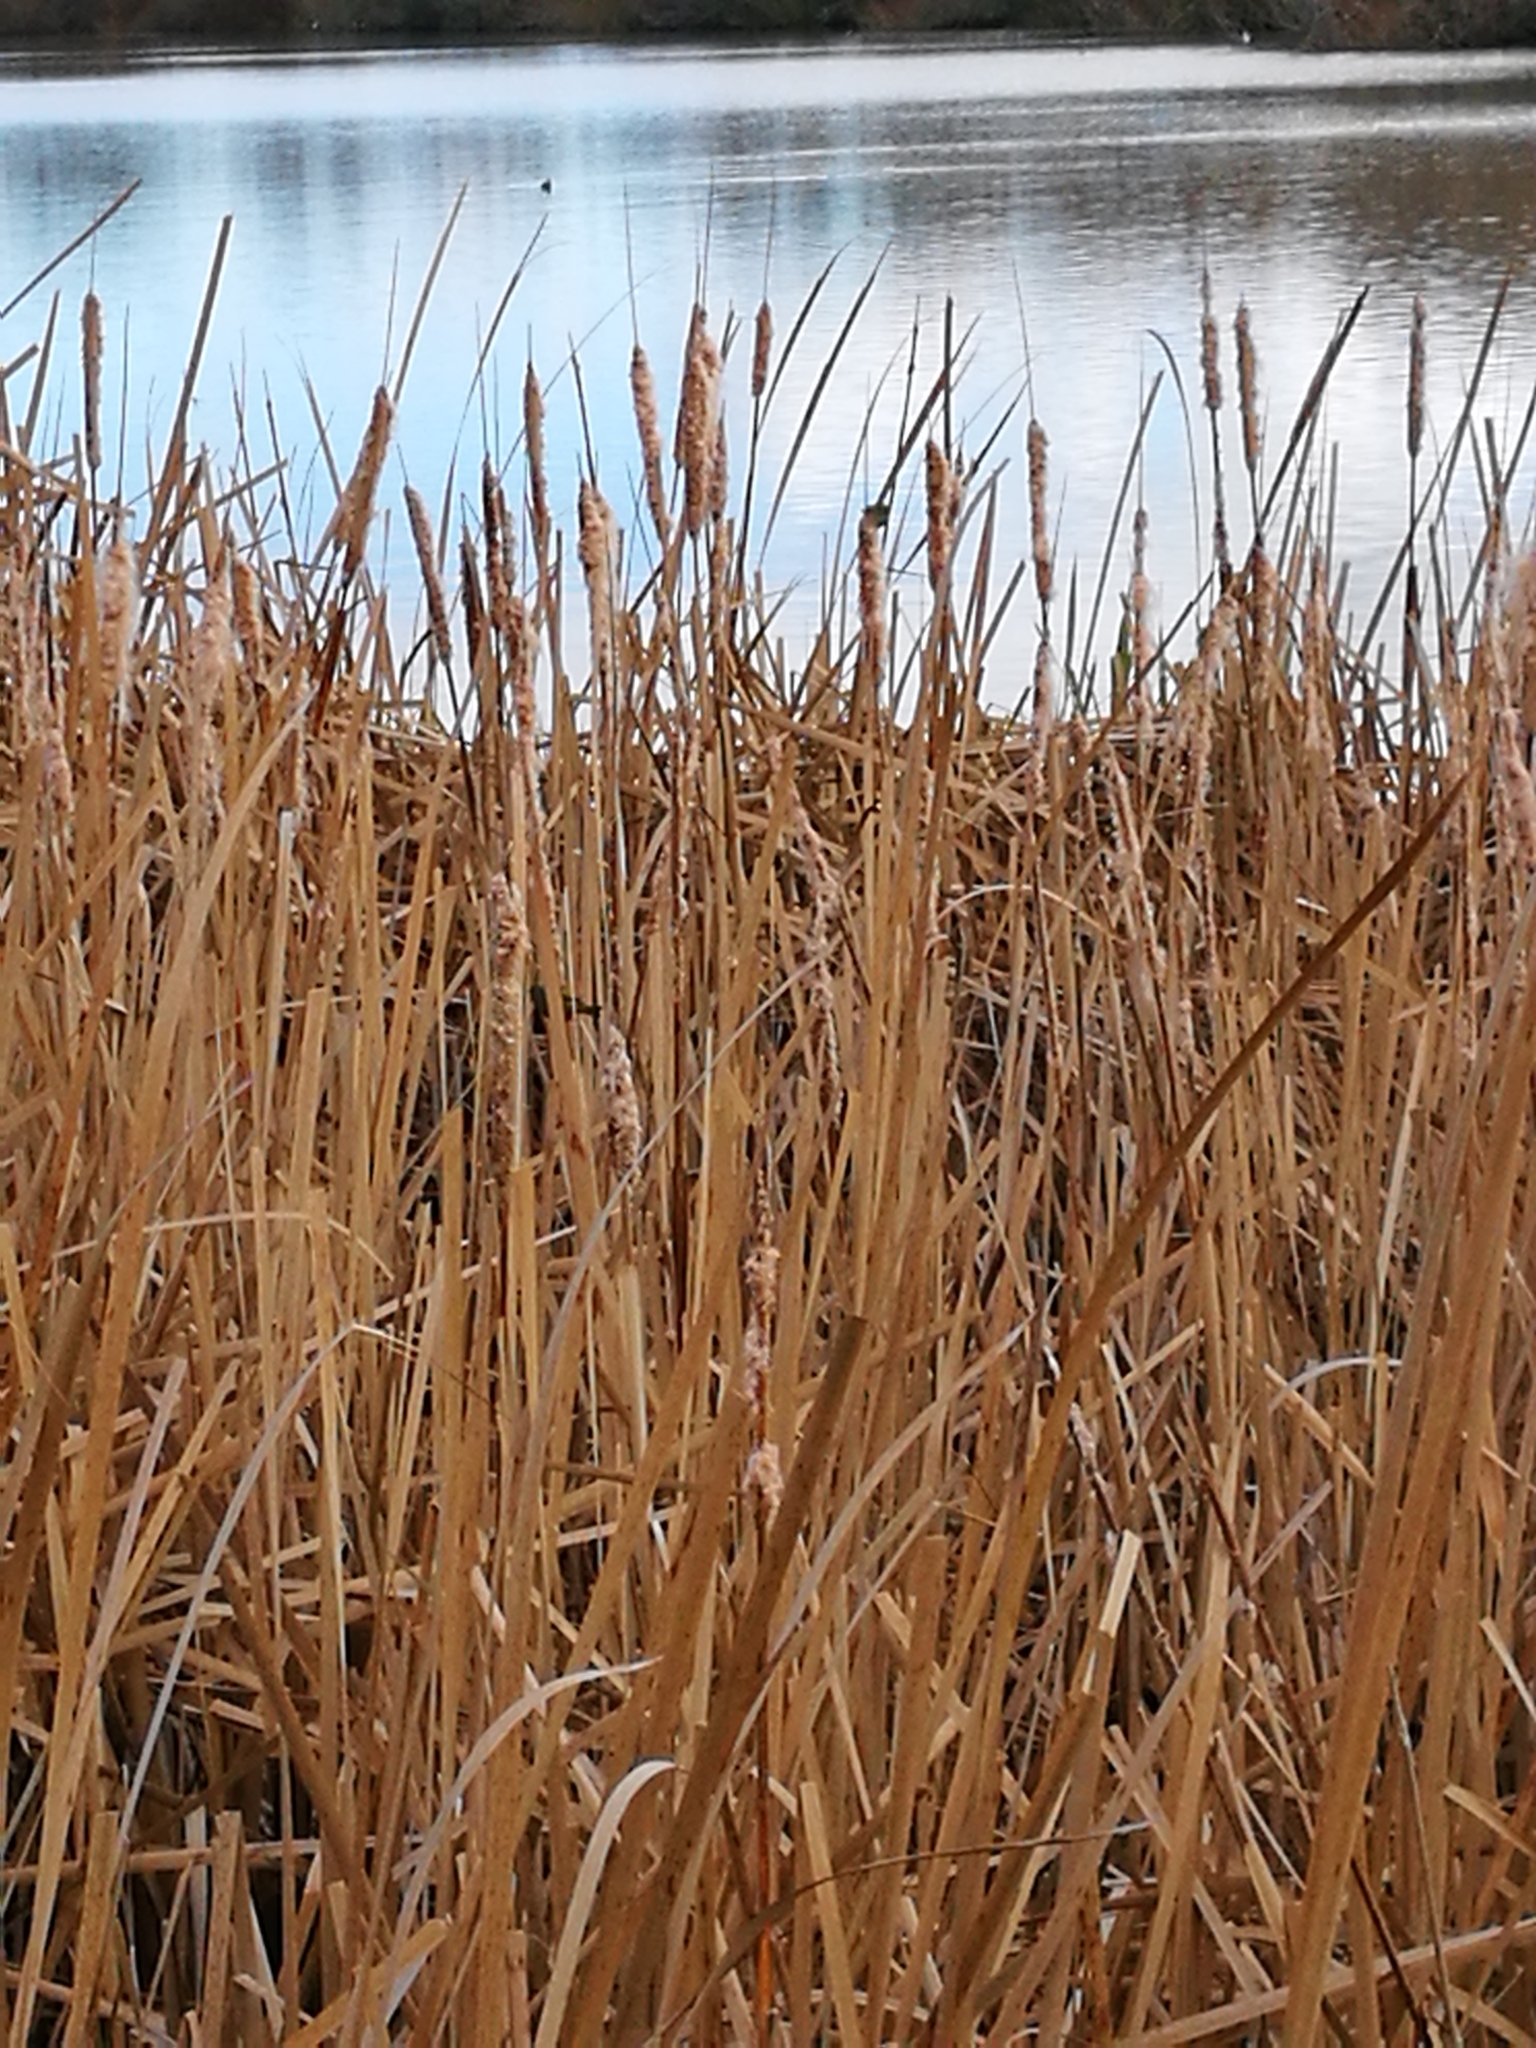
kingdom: Animalia
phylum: Chordata
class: Aves
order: Passeriformes
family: Zosteropidae
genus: Zosterops
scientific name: Zosterops lateralis
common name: Silvereye
